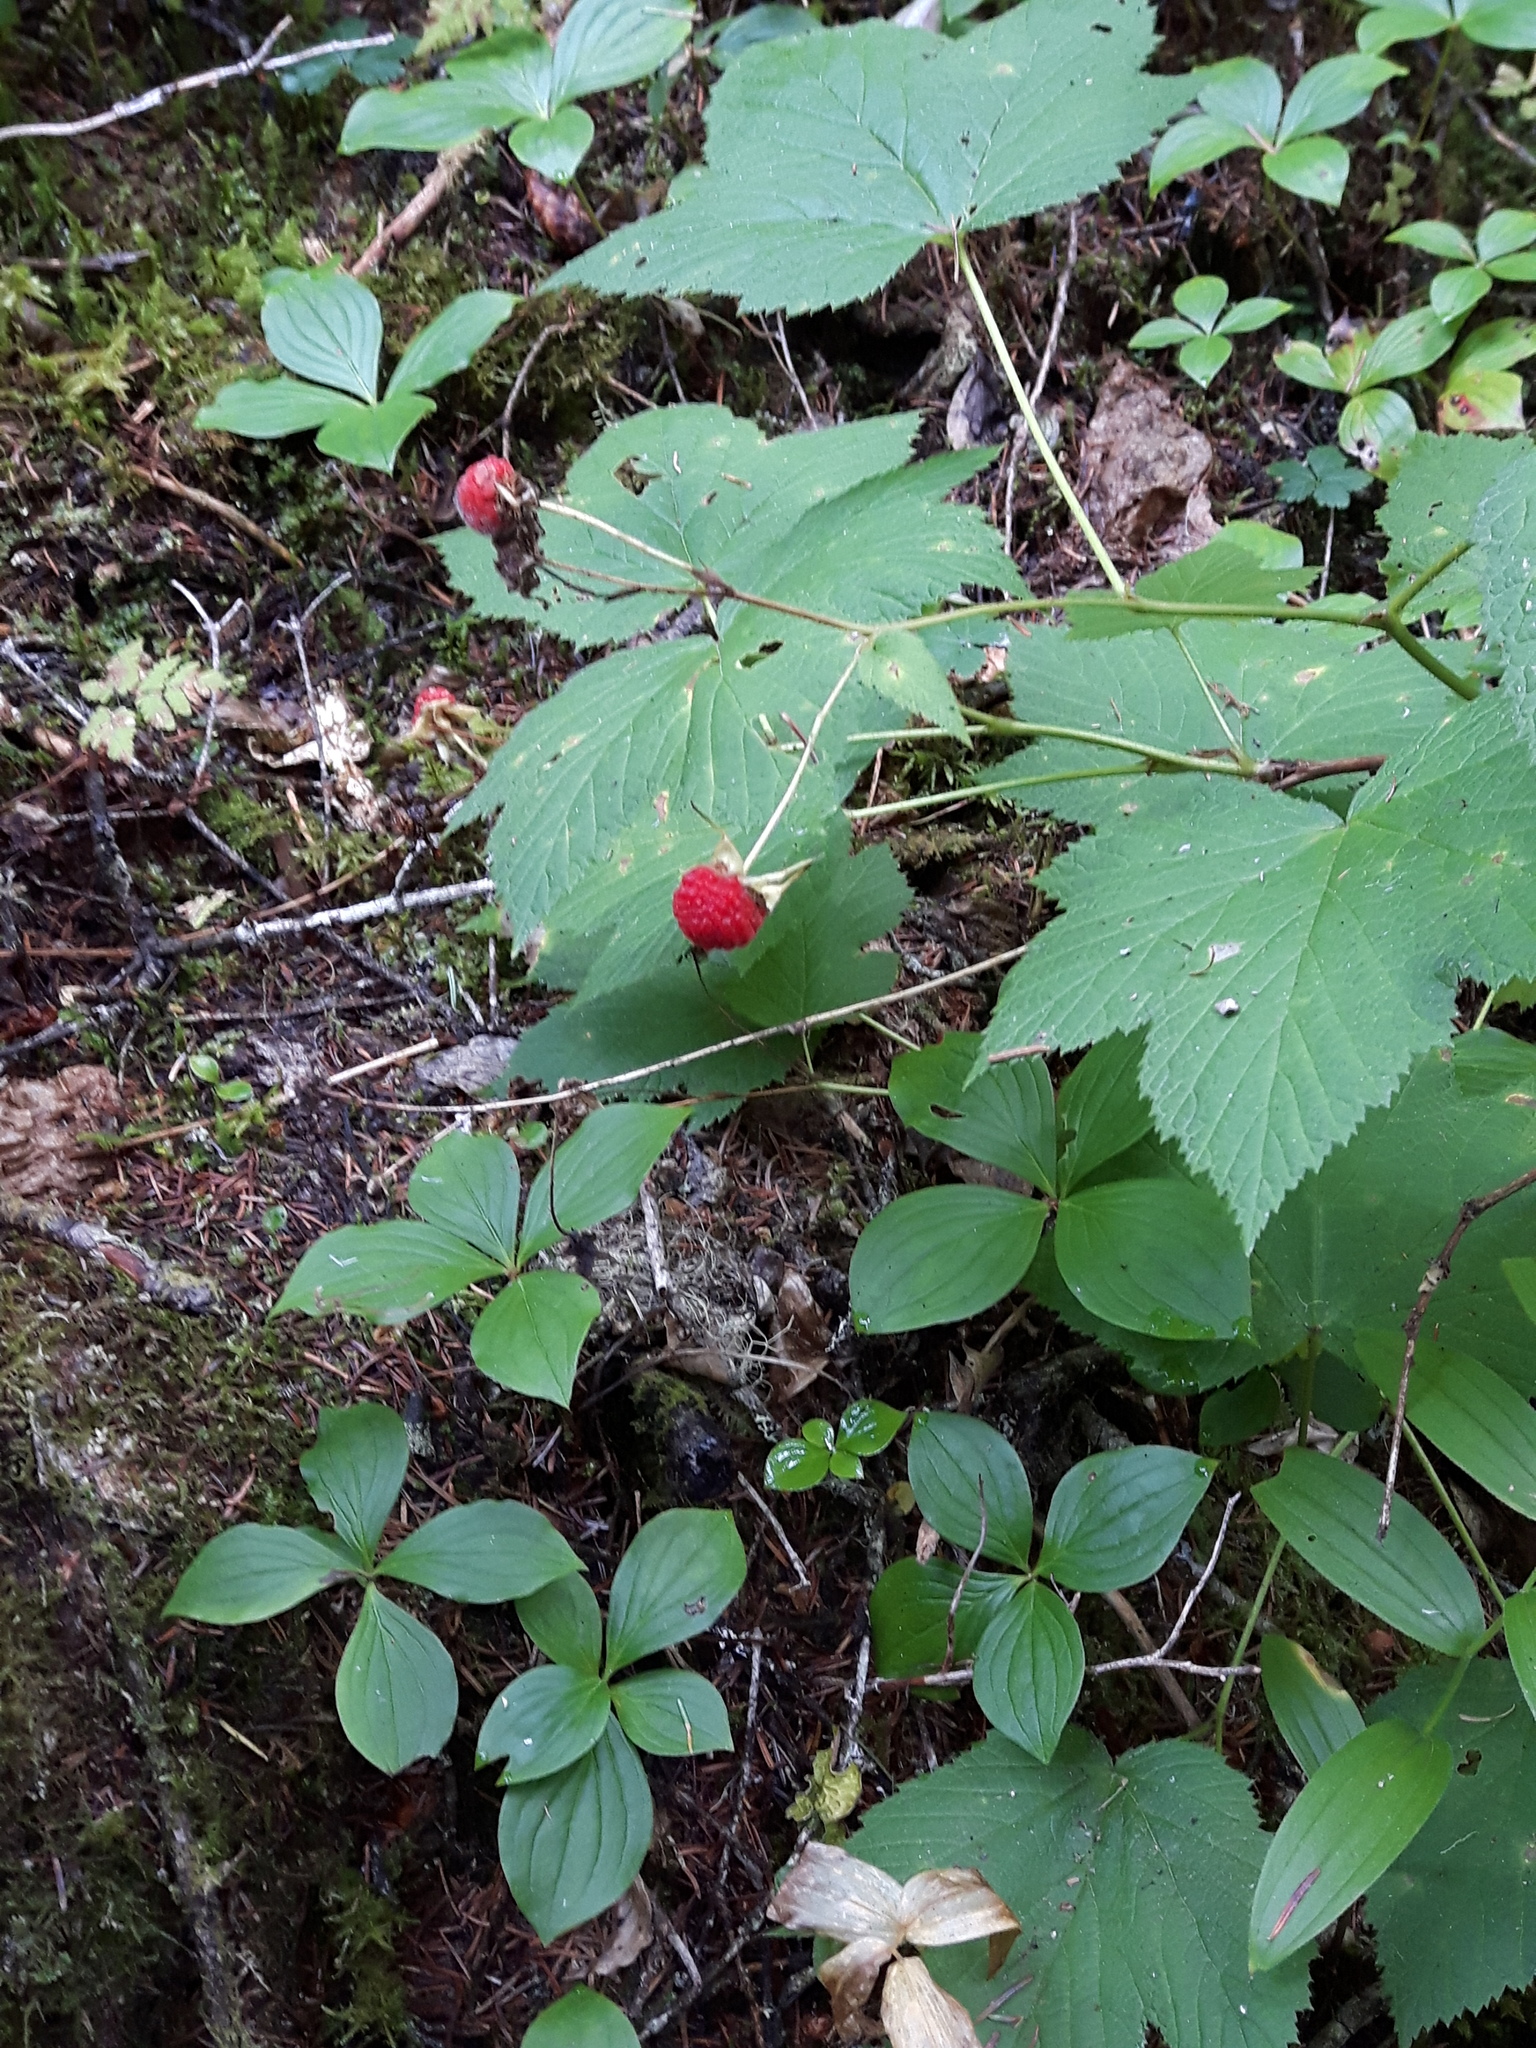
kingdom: Plantae
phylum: Tracheophyta
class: Magnoliopsida
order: Rosales
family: Rosaceae
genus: Rubus
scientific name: Rubus parviflorus
